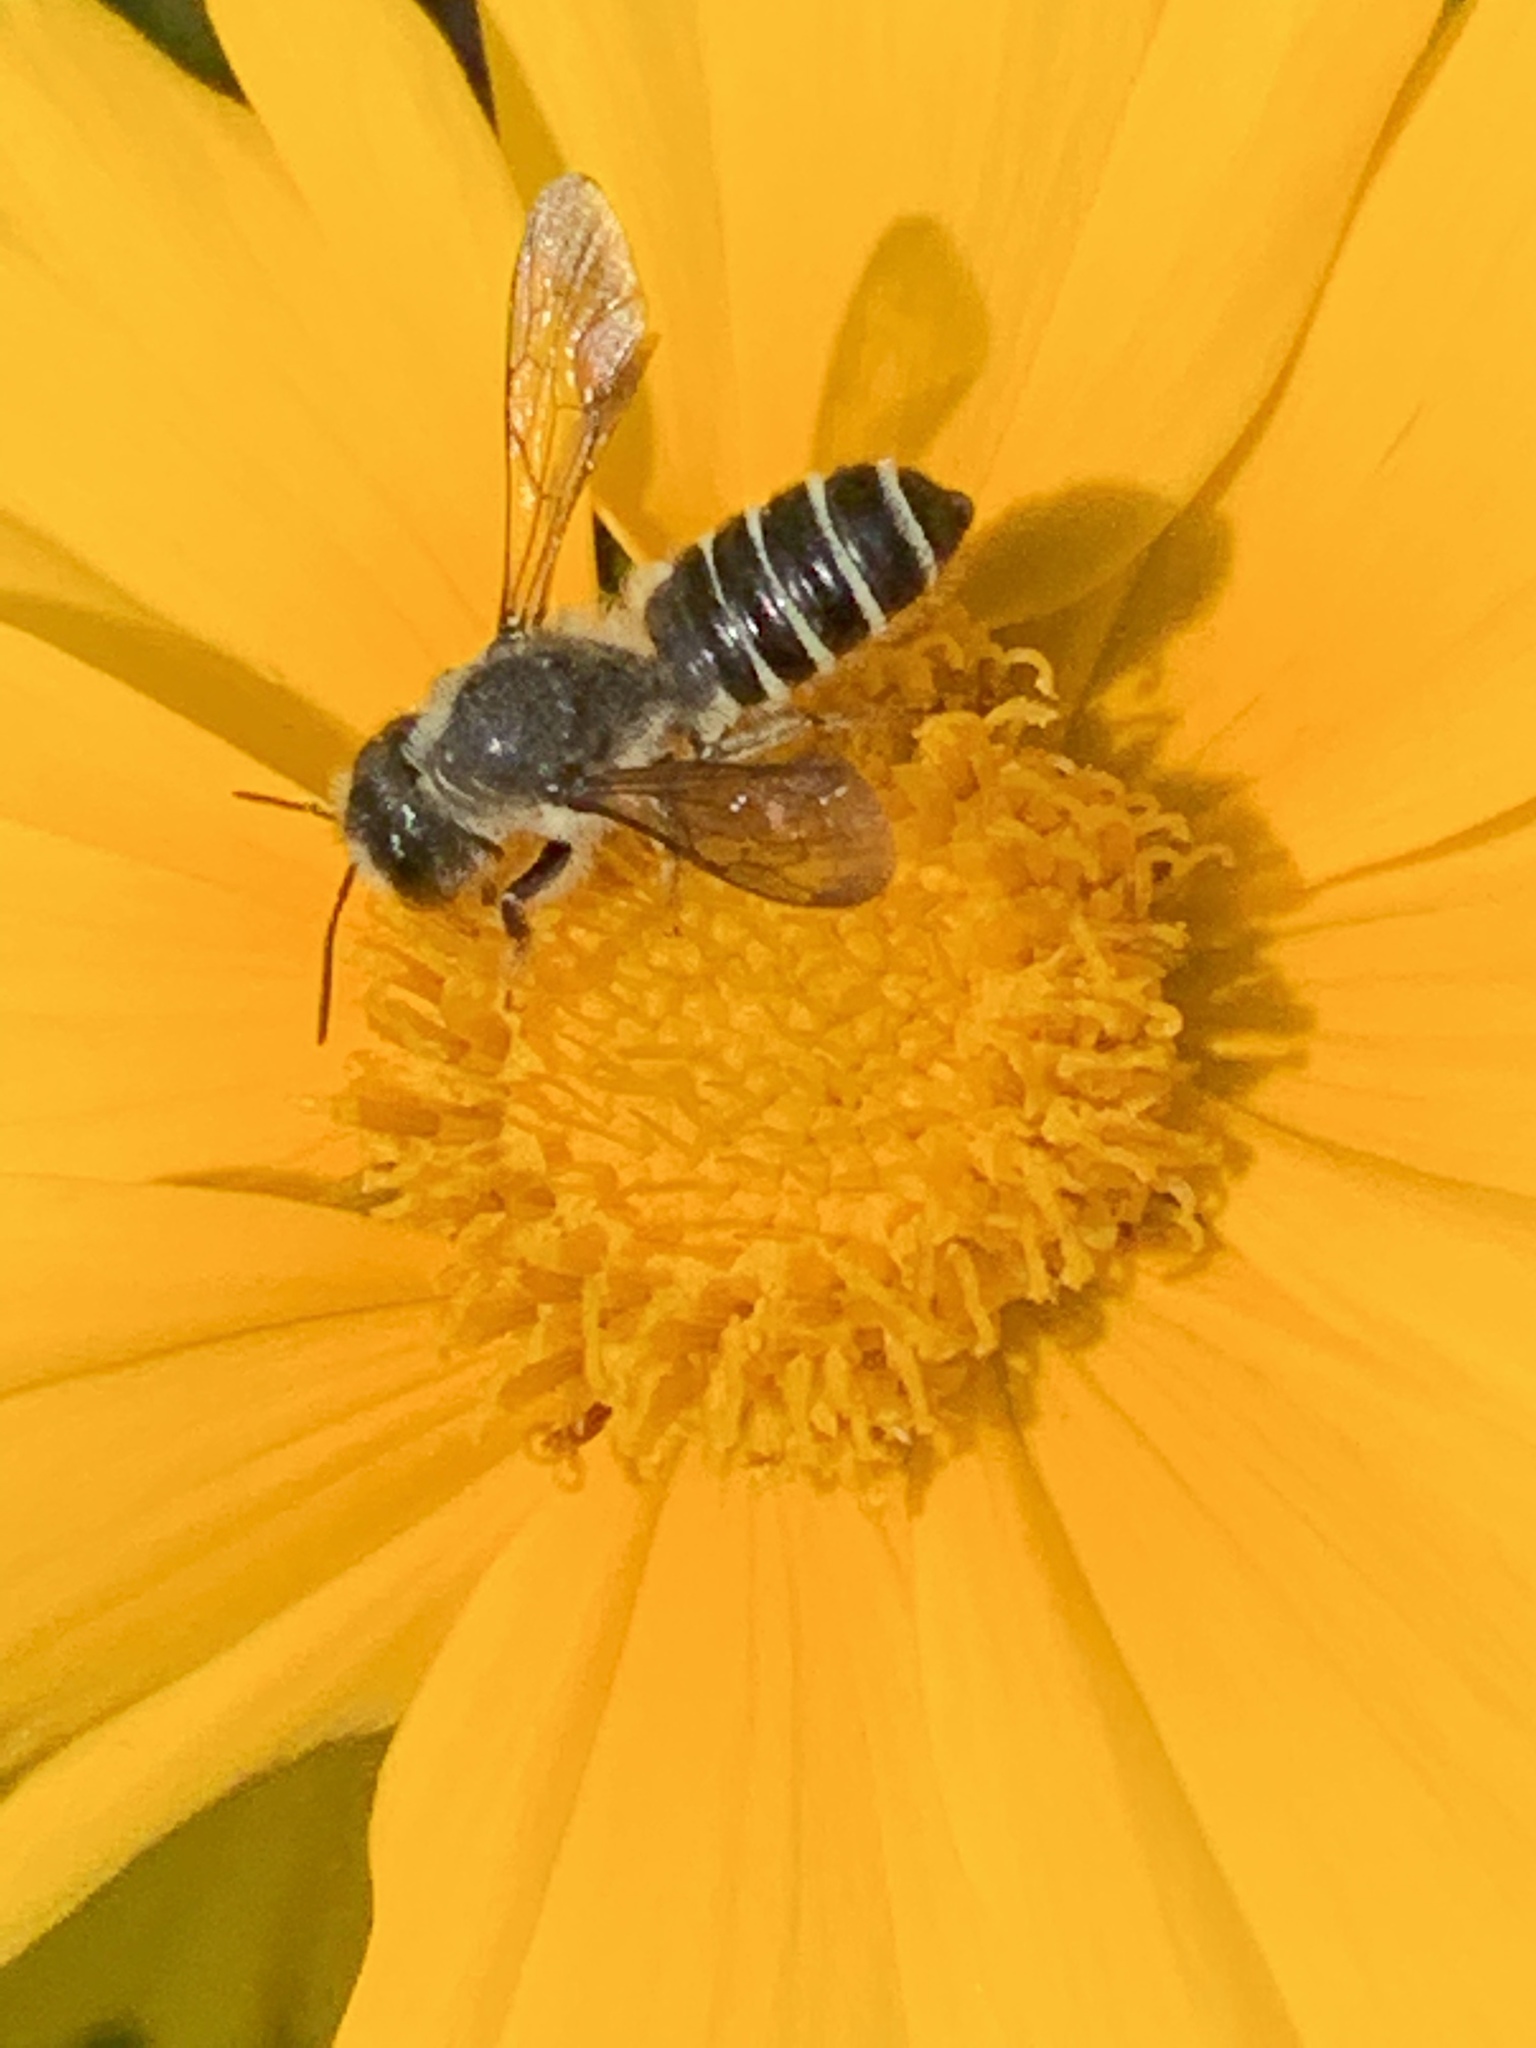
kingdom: Animalia
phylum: Arthropoda
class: Insecta
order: Hymenoptera
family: Megachilidae
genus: Megachile
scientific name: Megachile pugnata
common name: Pugnacious leafcutter bee
